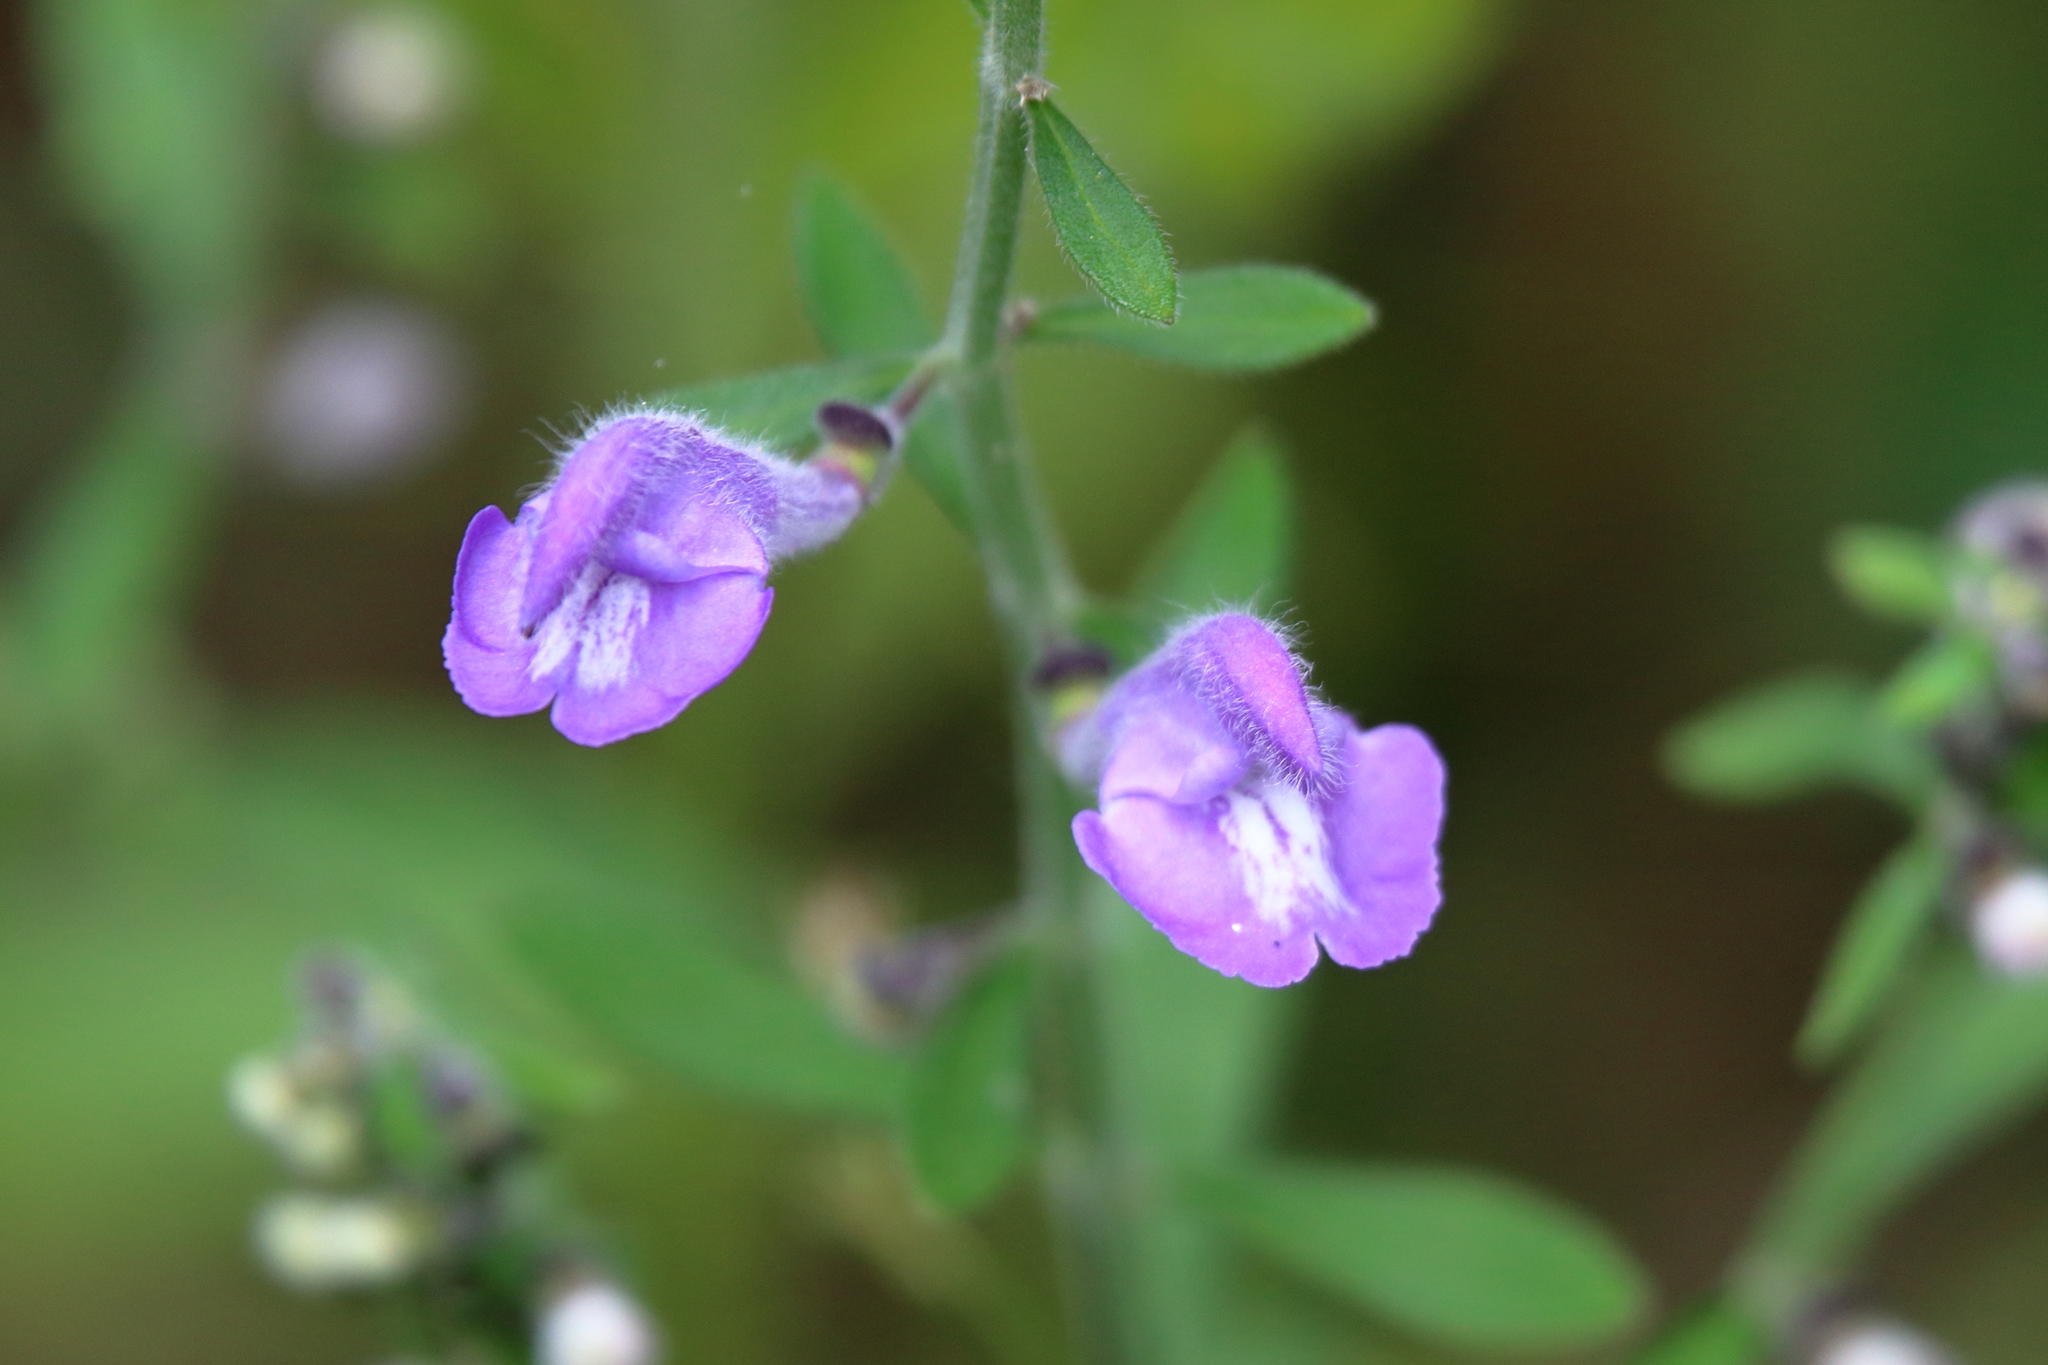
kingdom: Plantae
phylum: Tracheophyta
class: Magnoliopsida
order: Lamiales
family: Lamiaceae
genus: Scutellaria
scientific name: Scutellaria integrifolia
